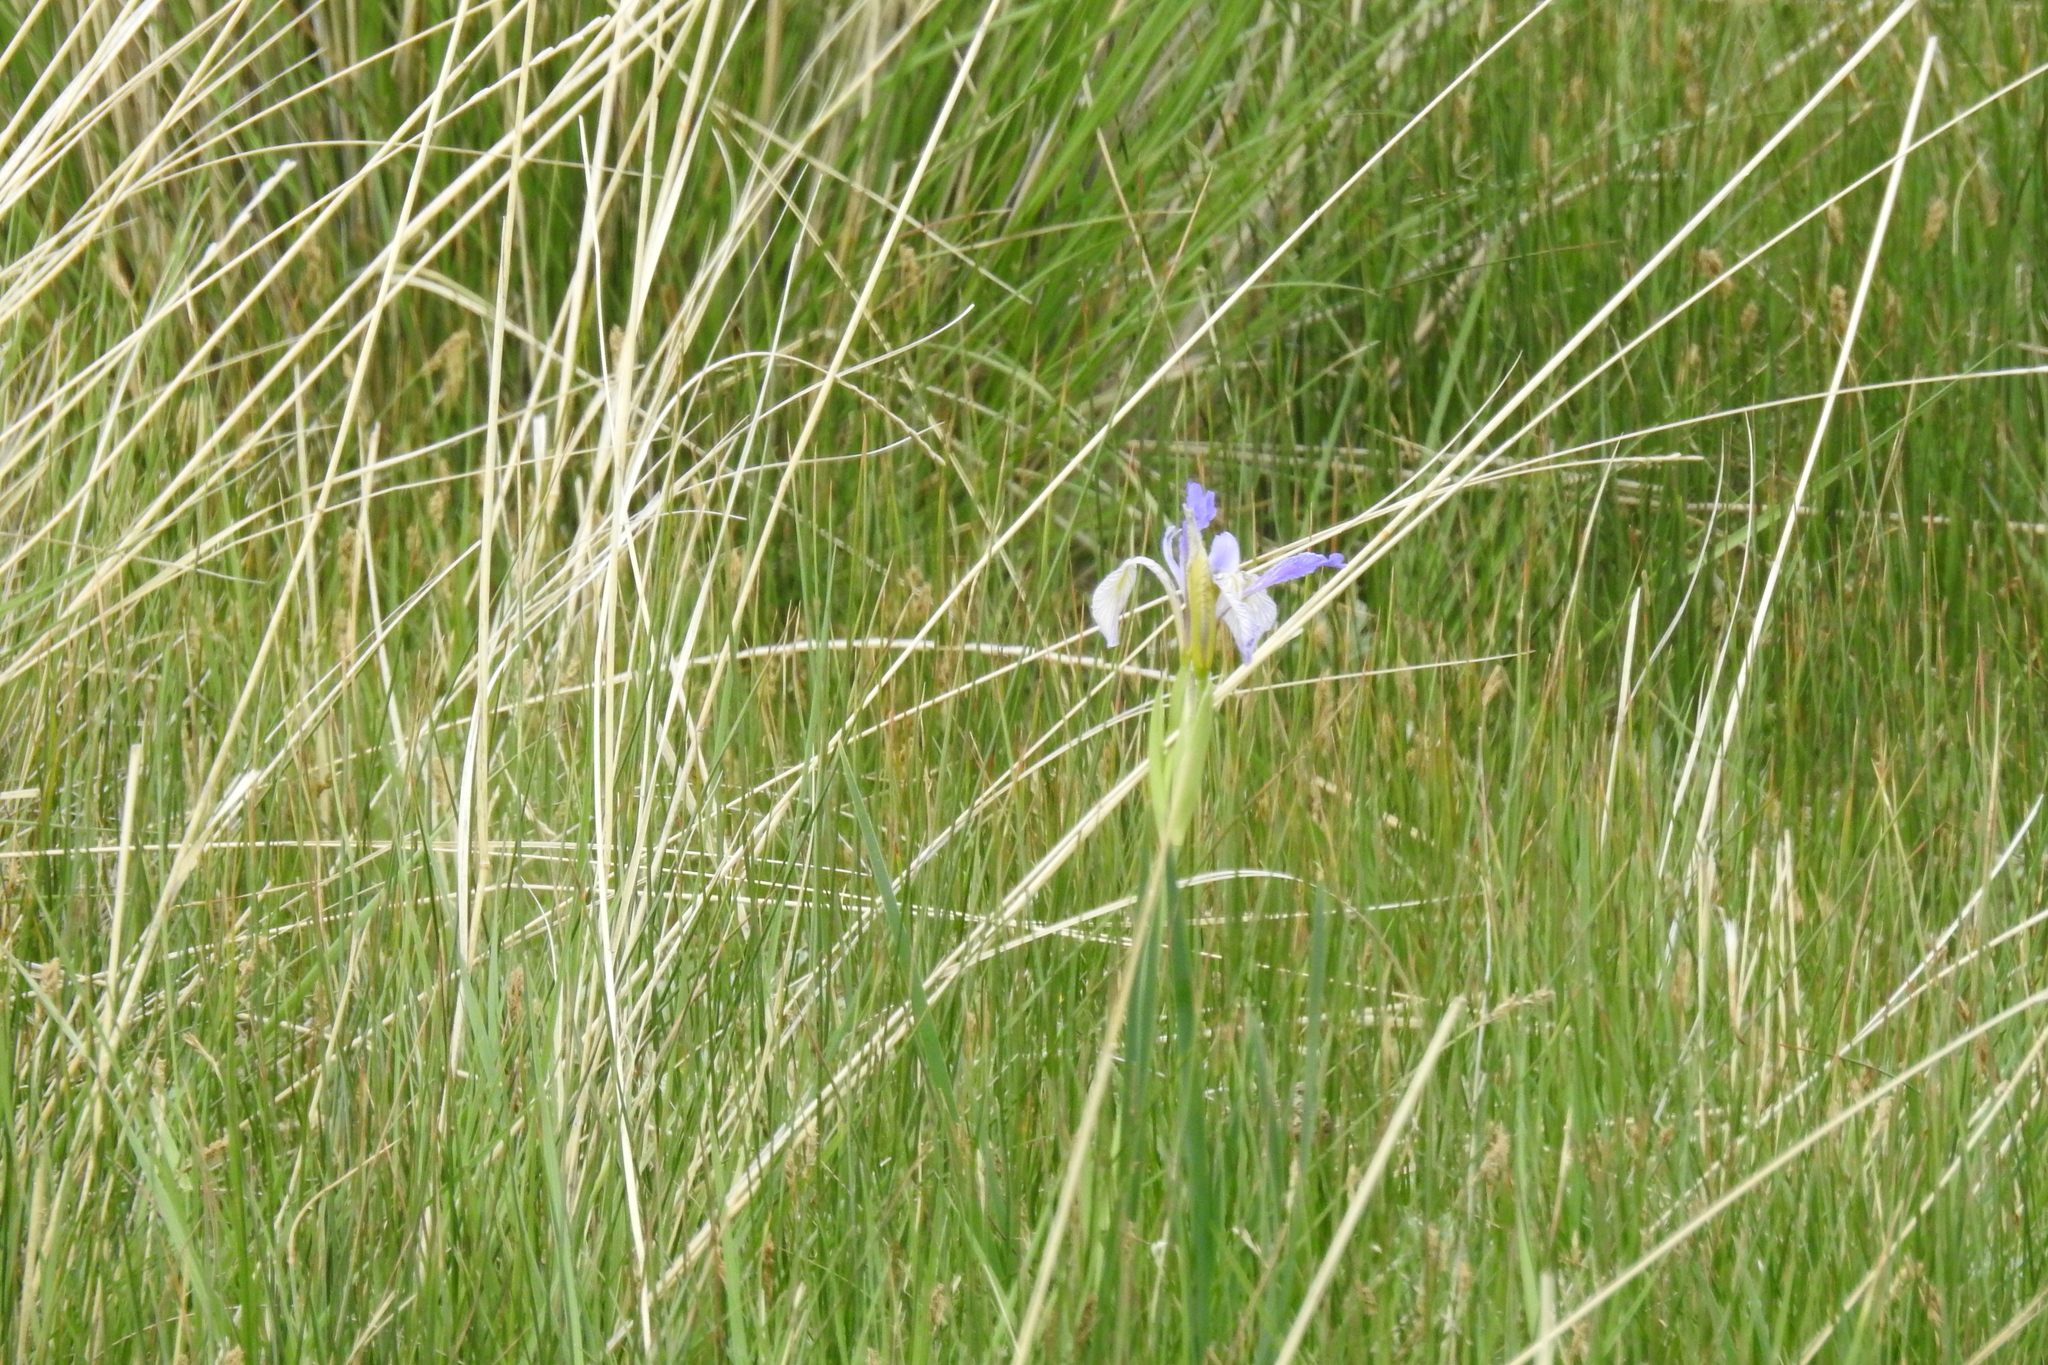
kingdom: Plantae
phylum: Tracheophyta
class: Liliopsida
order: Asparagales
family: Iridaceae
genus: Iris
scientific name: Iris missouriensis
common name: Rocky mountain iris
